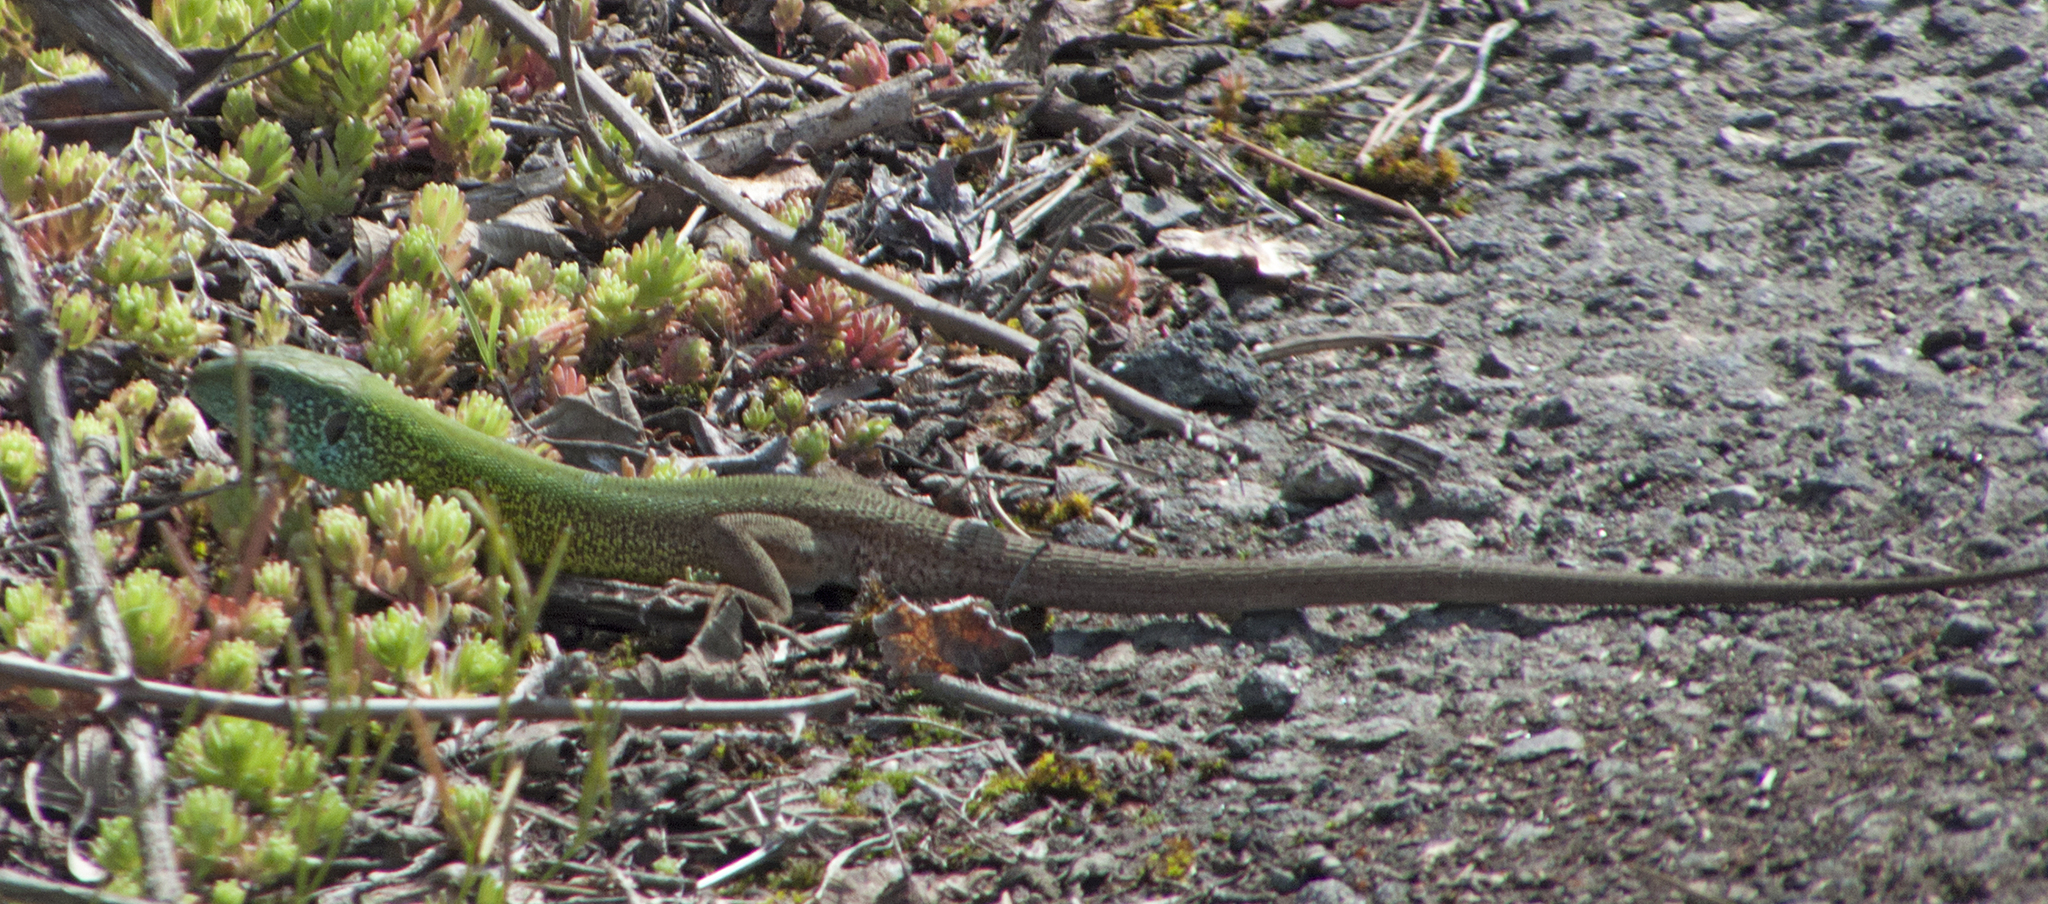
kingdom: Animalia
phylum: Chordata
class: Squamata
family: Lacertidae
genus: Lacerta
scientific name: Lacerta viridis
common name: European green lizard
